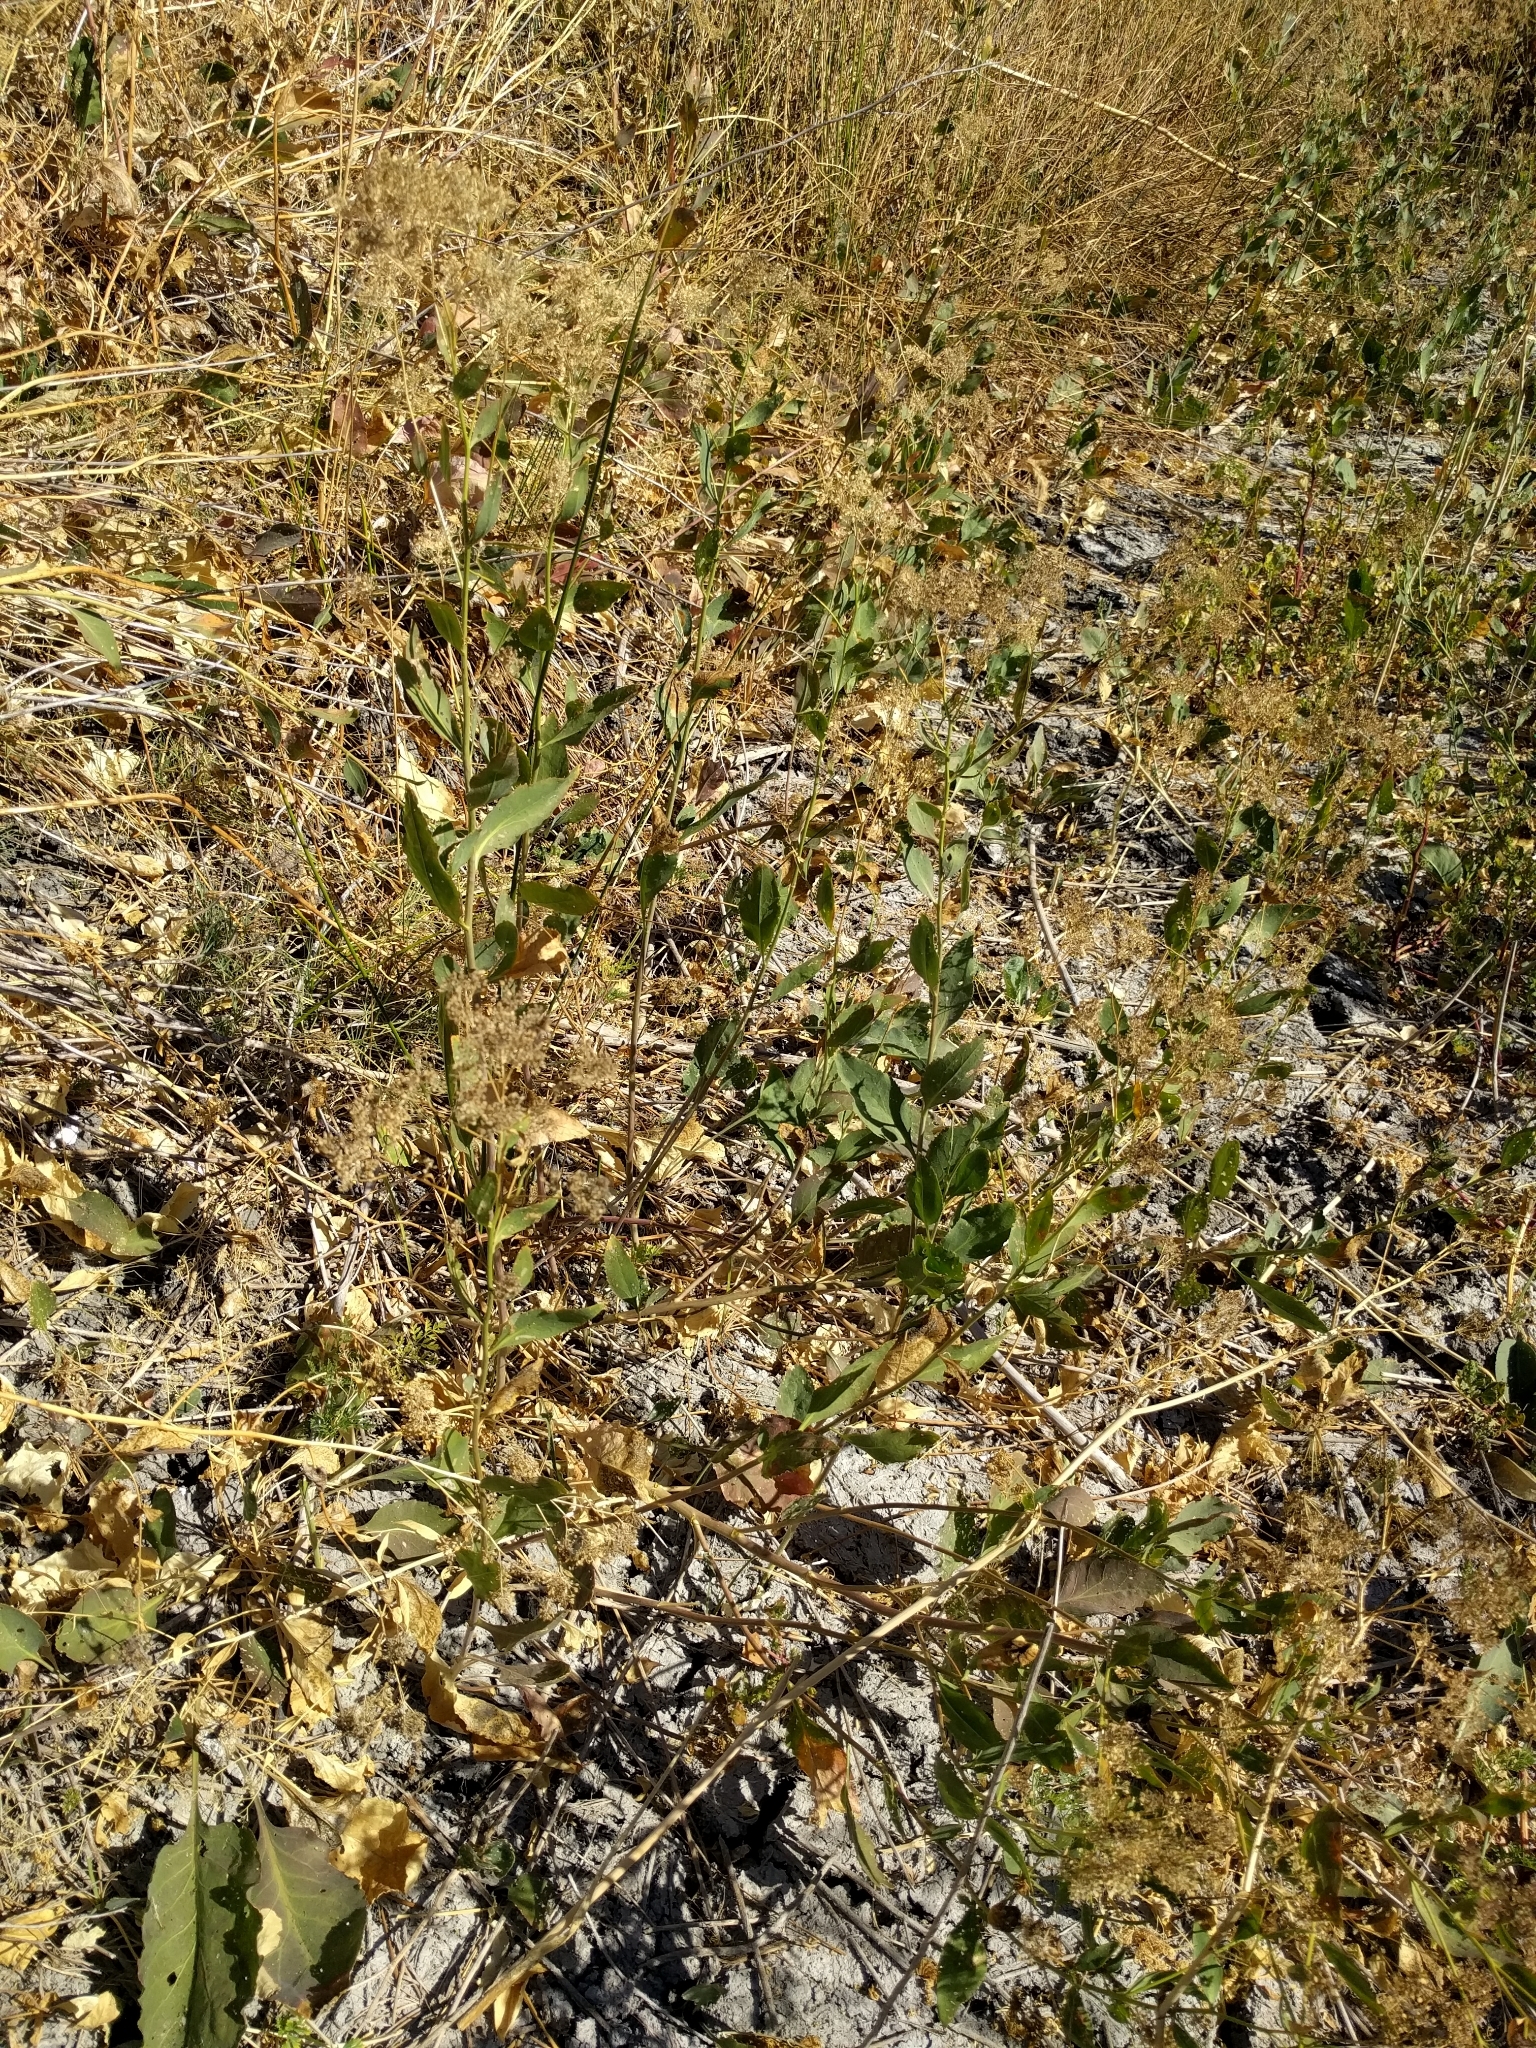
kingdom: Plantae
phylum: Tracheophyta
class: Magnoliopsida
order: Brassicales
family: Brassicaceae
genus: Lepidium
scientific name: Lepidium latifolium
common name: Dittander
